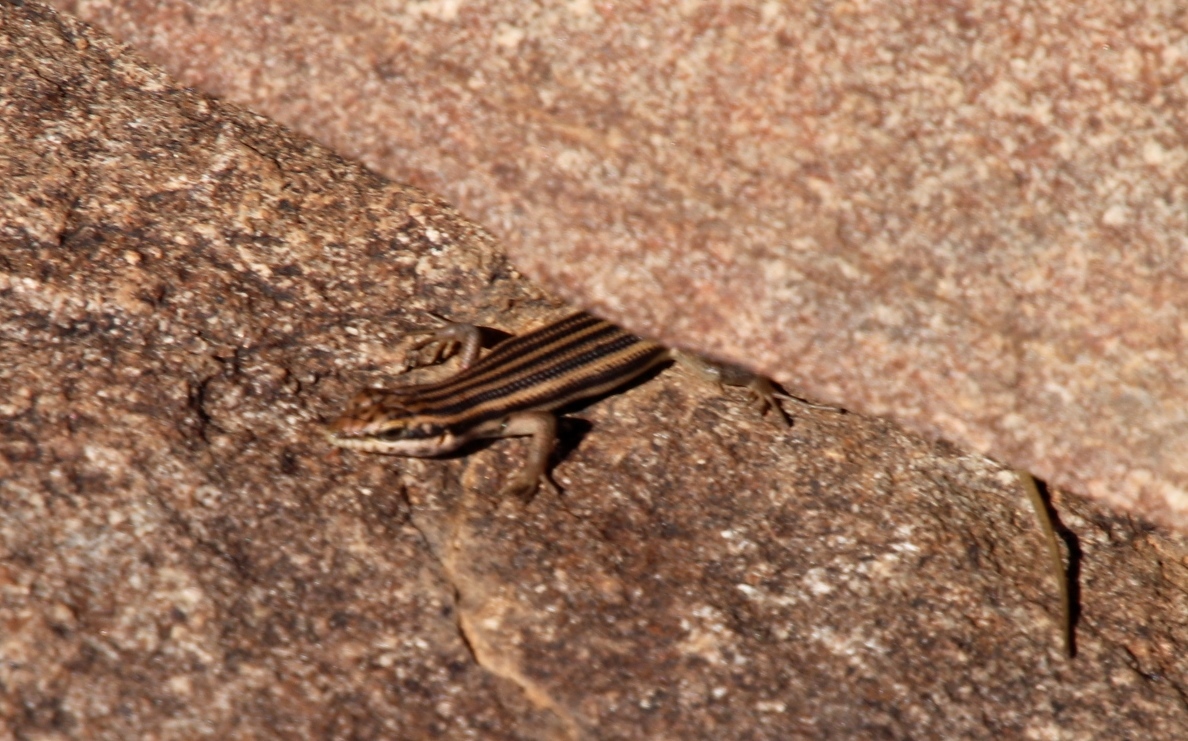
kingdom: Animalia
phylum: Chordata
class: Squamata
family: Scincidae
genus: Trachylepis
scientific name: Trachylepis sulcata
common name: Western rock skink
